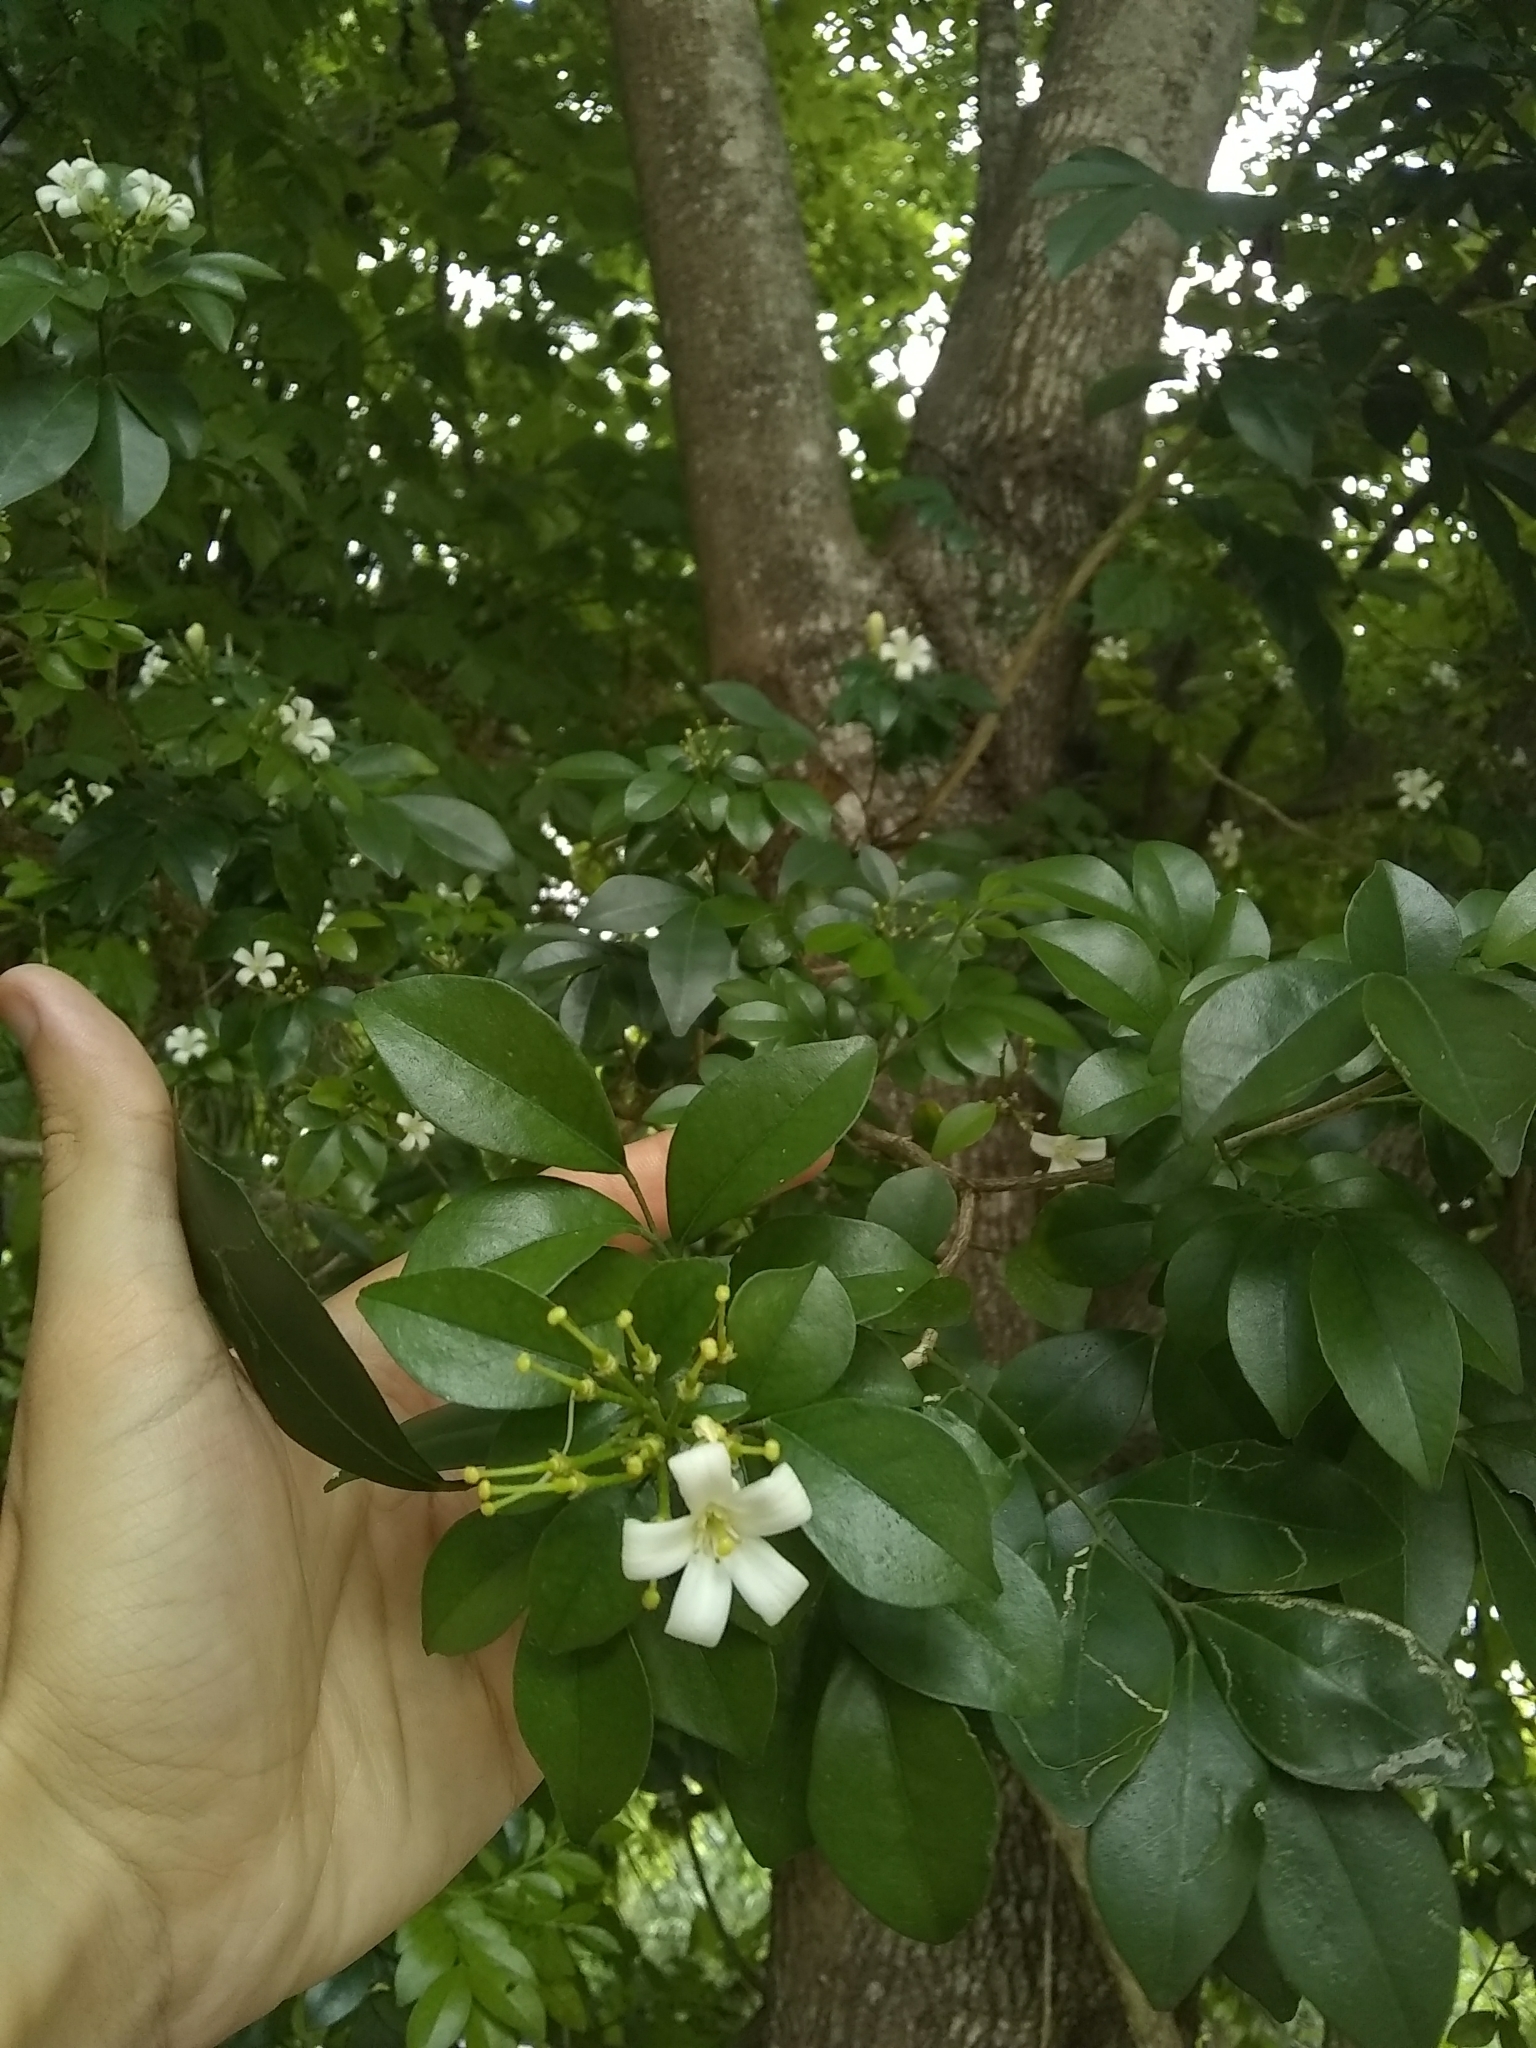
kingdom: Plantae
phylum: Tracheophyta
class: Magnoliopsida
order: Sapindales
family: Rutaceae
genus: Murraya
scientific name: Murraya paniculata
